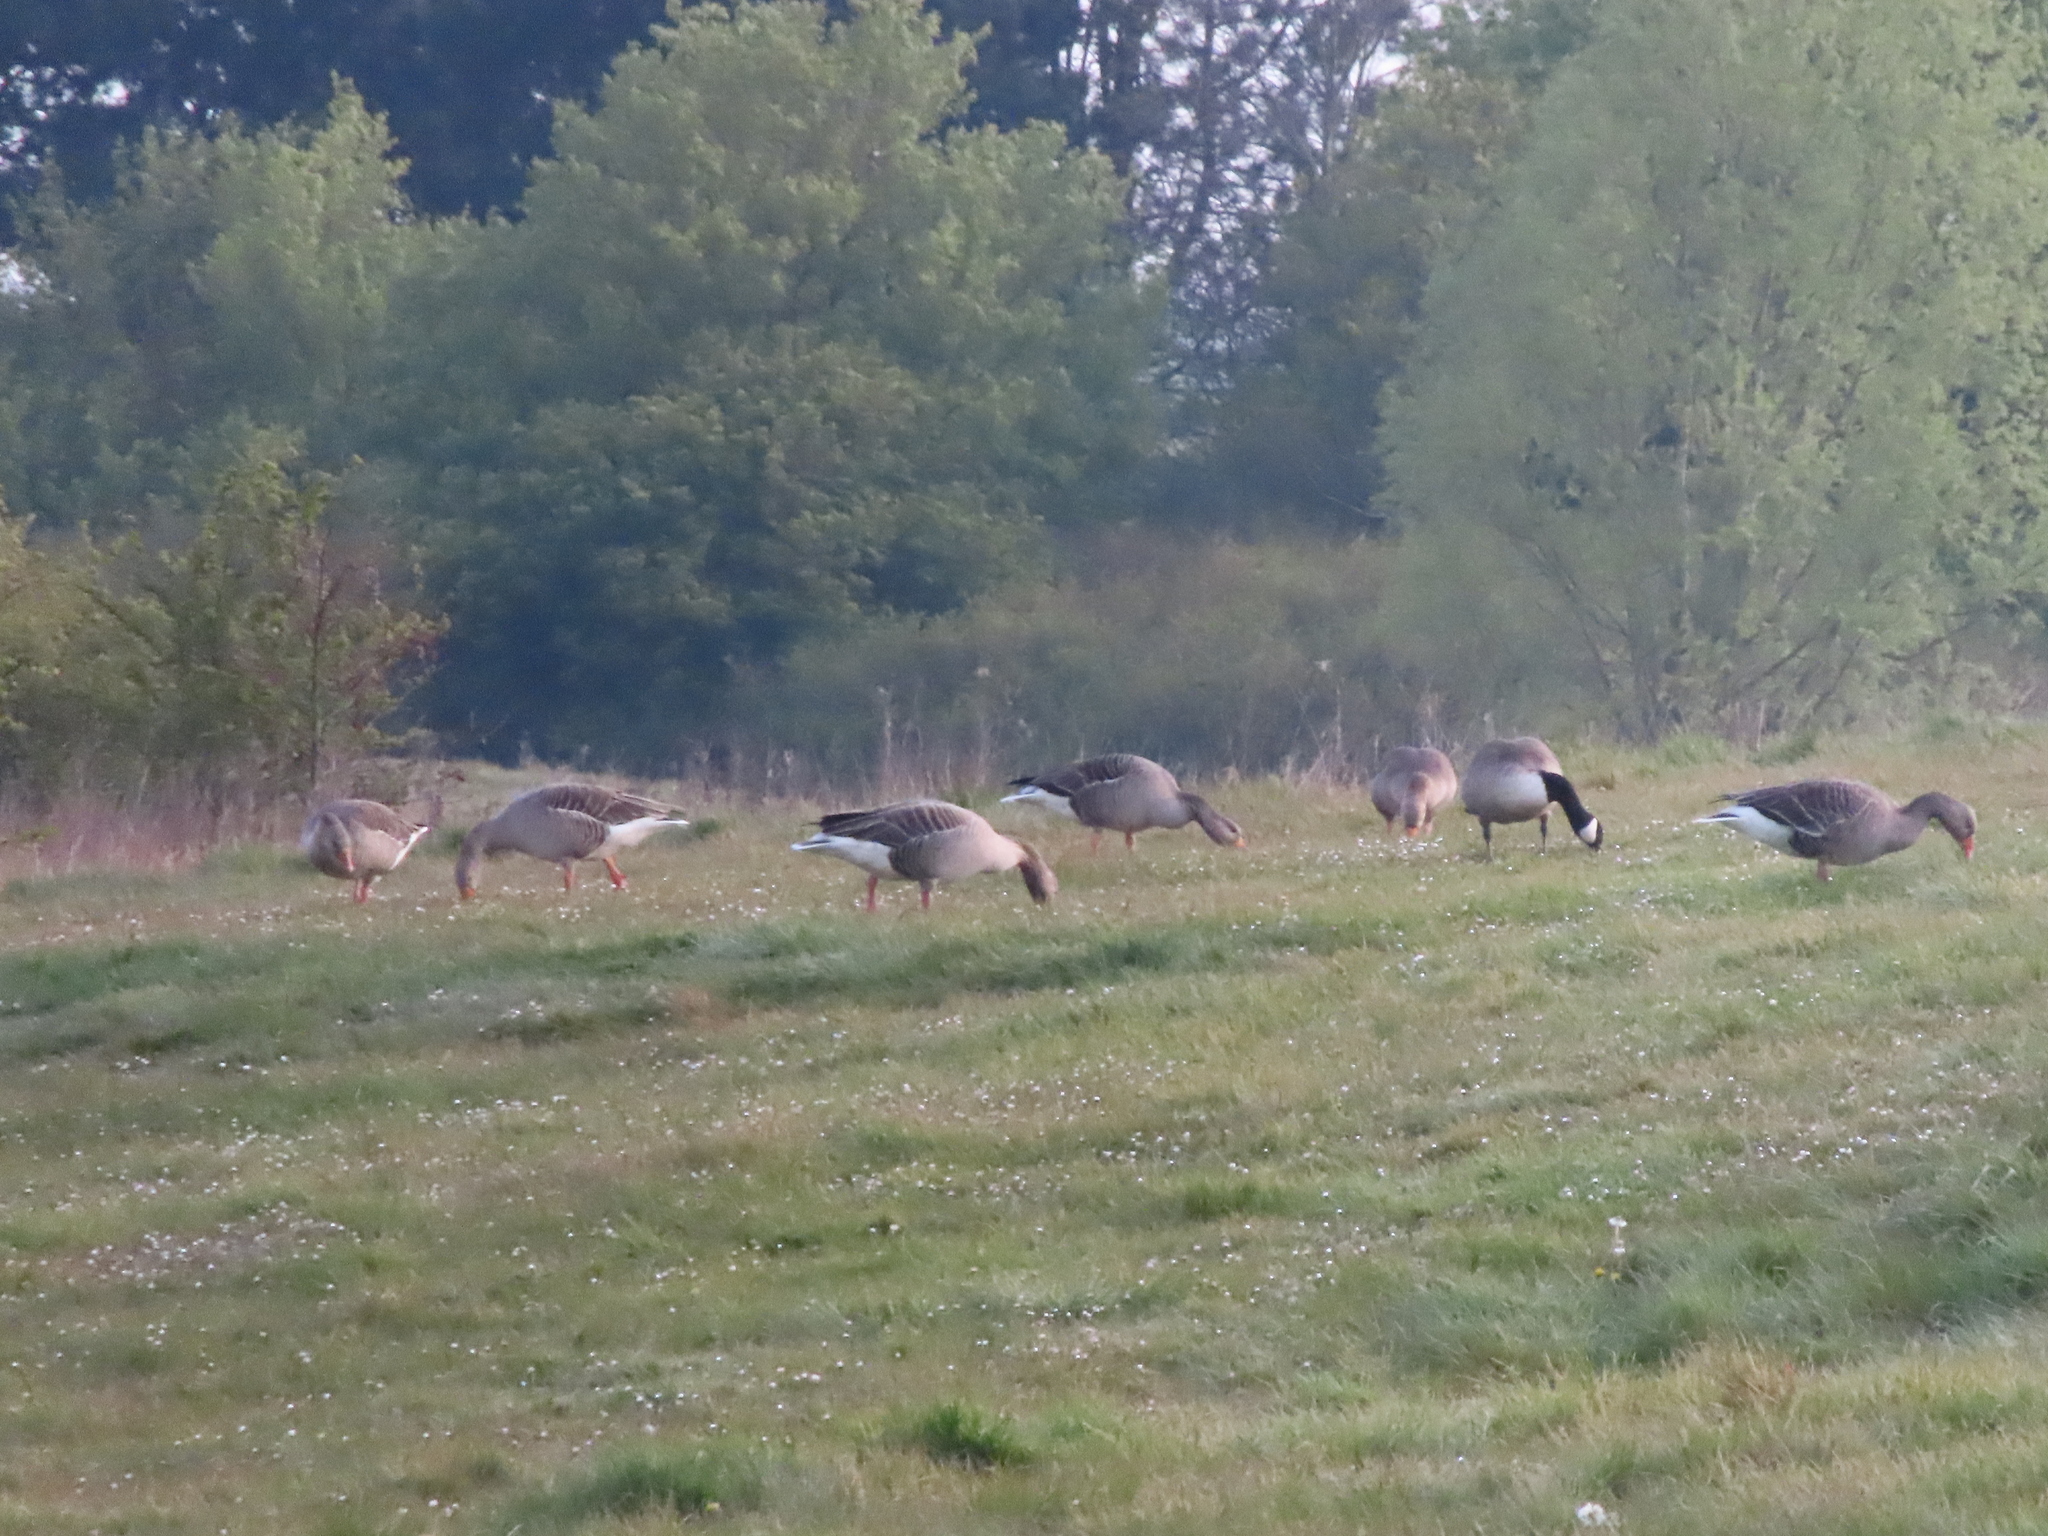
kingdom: Animalia
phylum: Chordata
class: Aves
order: Anseriformes
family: Anatidae
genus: Anser
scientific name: Anser anser
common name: Greylag goose
